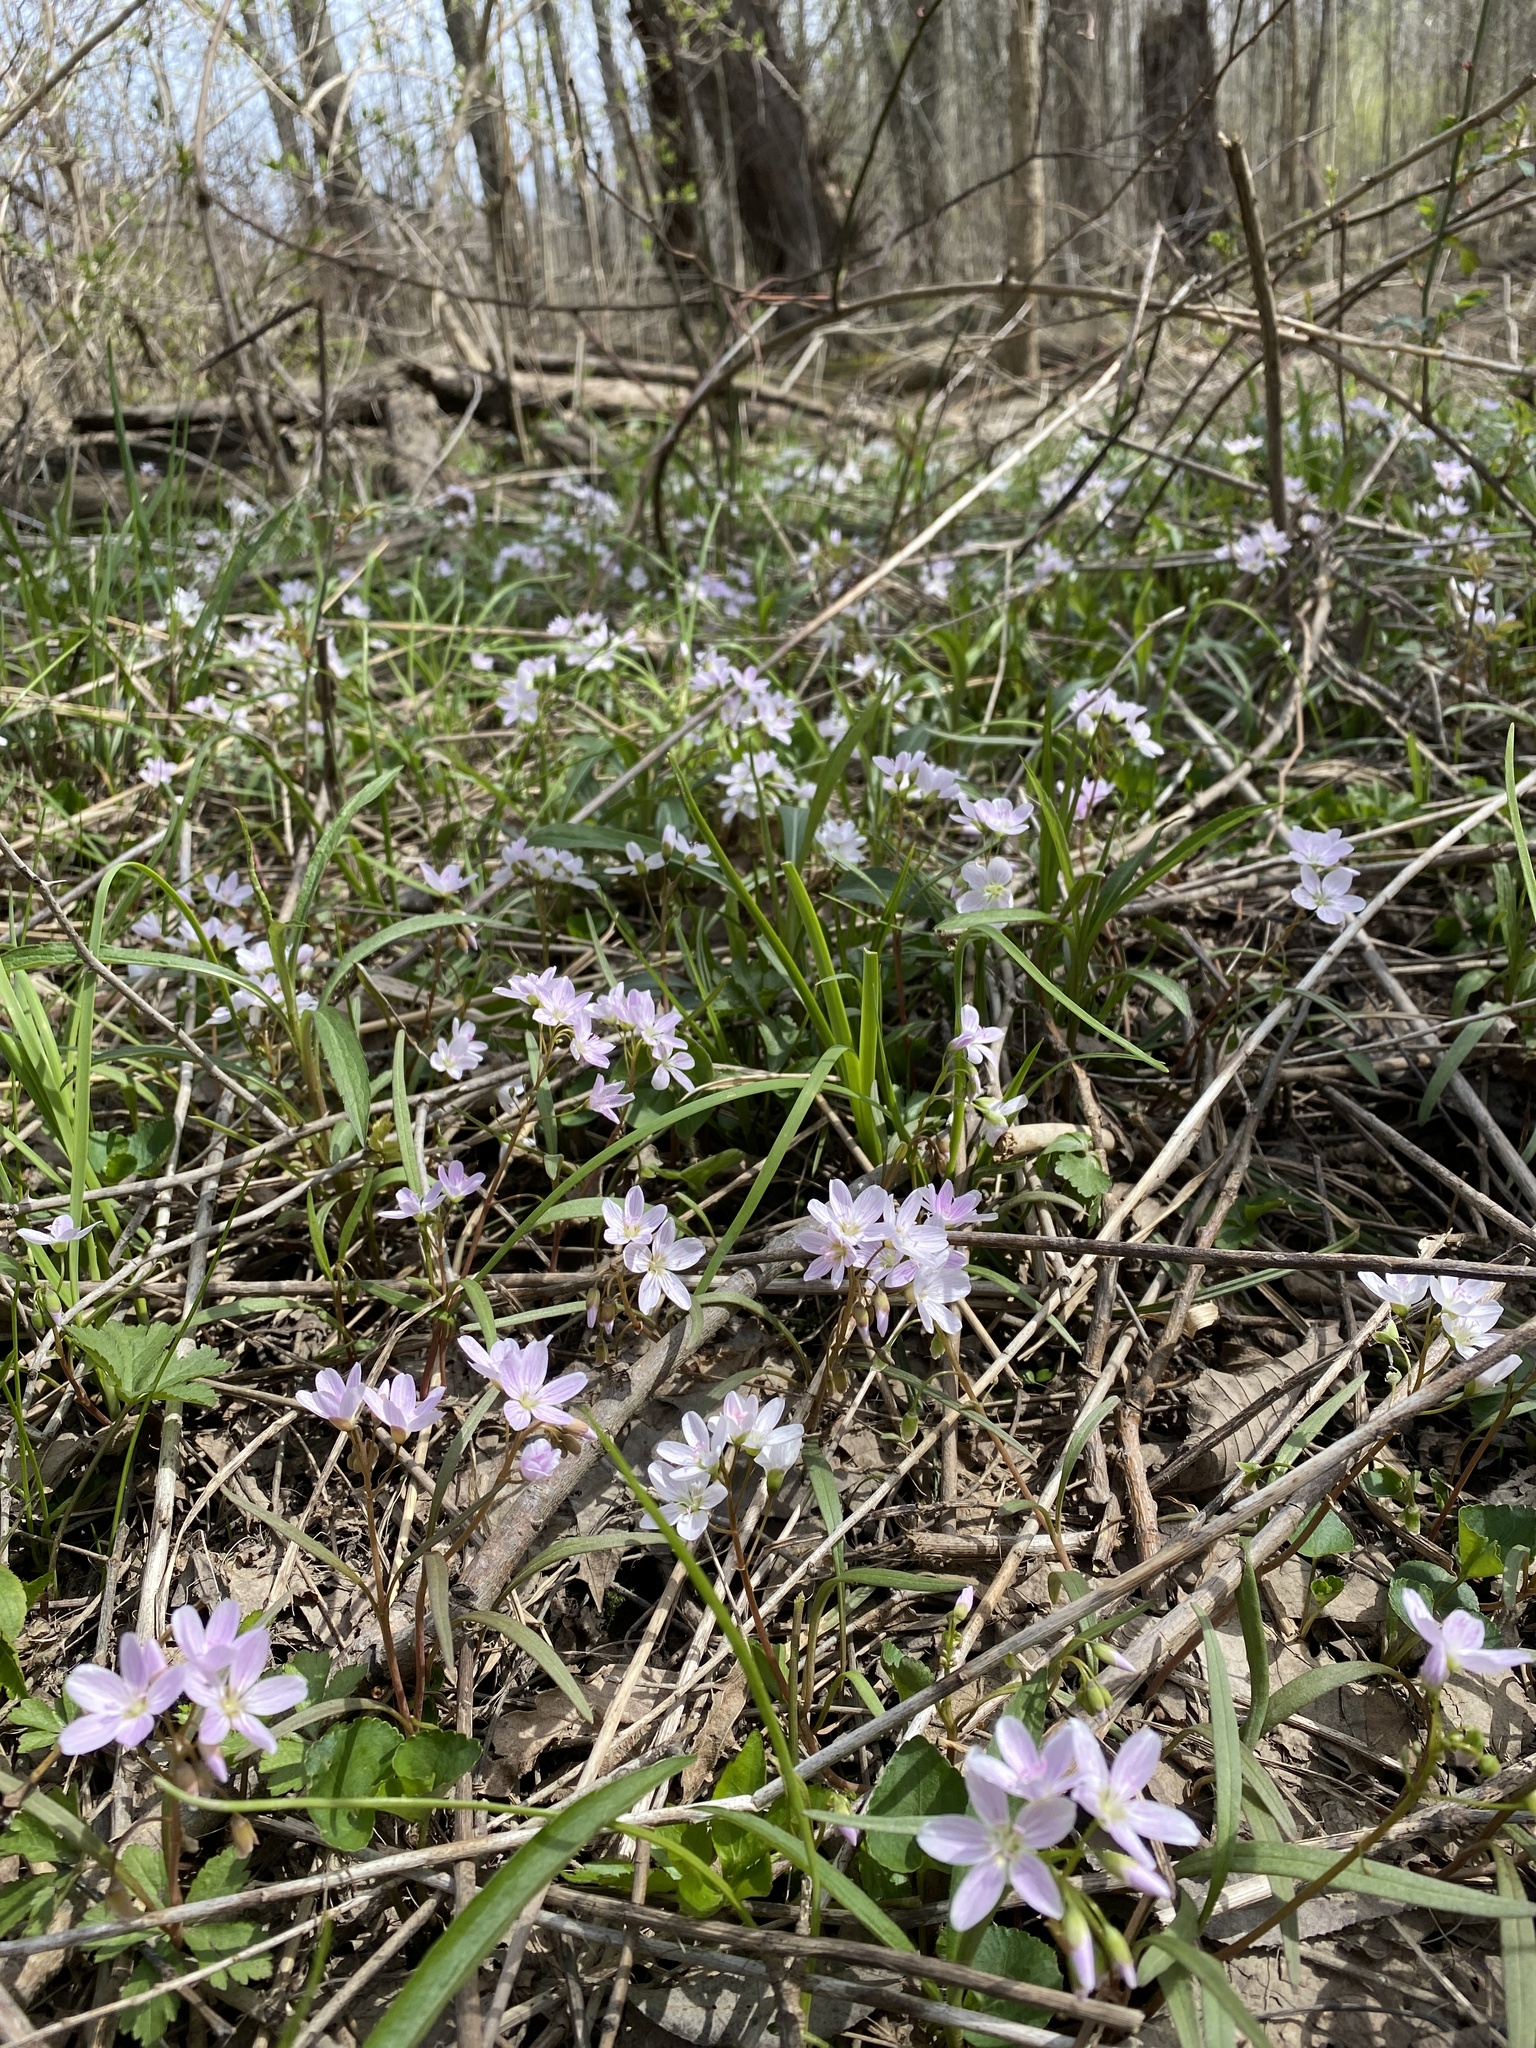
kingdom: Plantae
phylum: Tracheophyta
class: Magnoliopsida
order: Caryophyllales
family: Montiaceae
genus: Claytonia
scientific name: Claytonia virginica
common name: Virginia springbeauty
